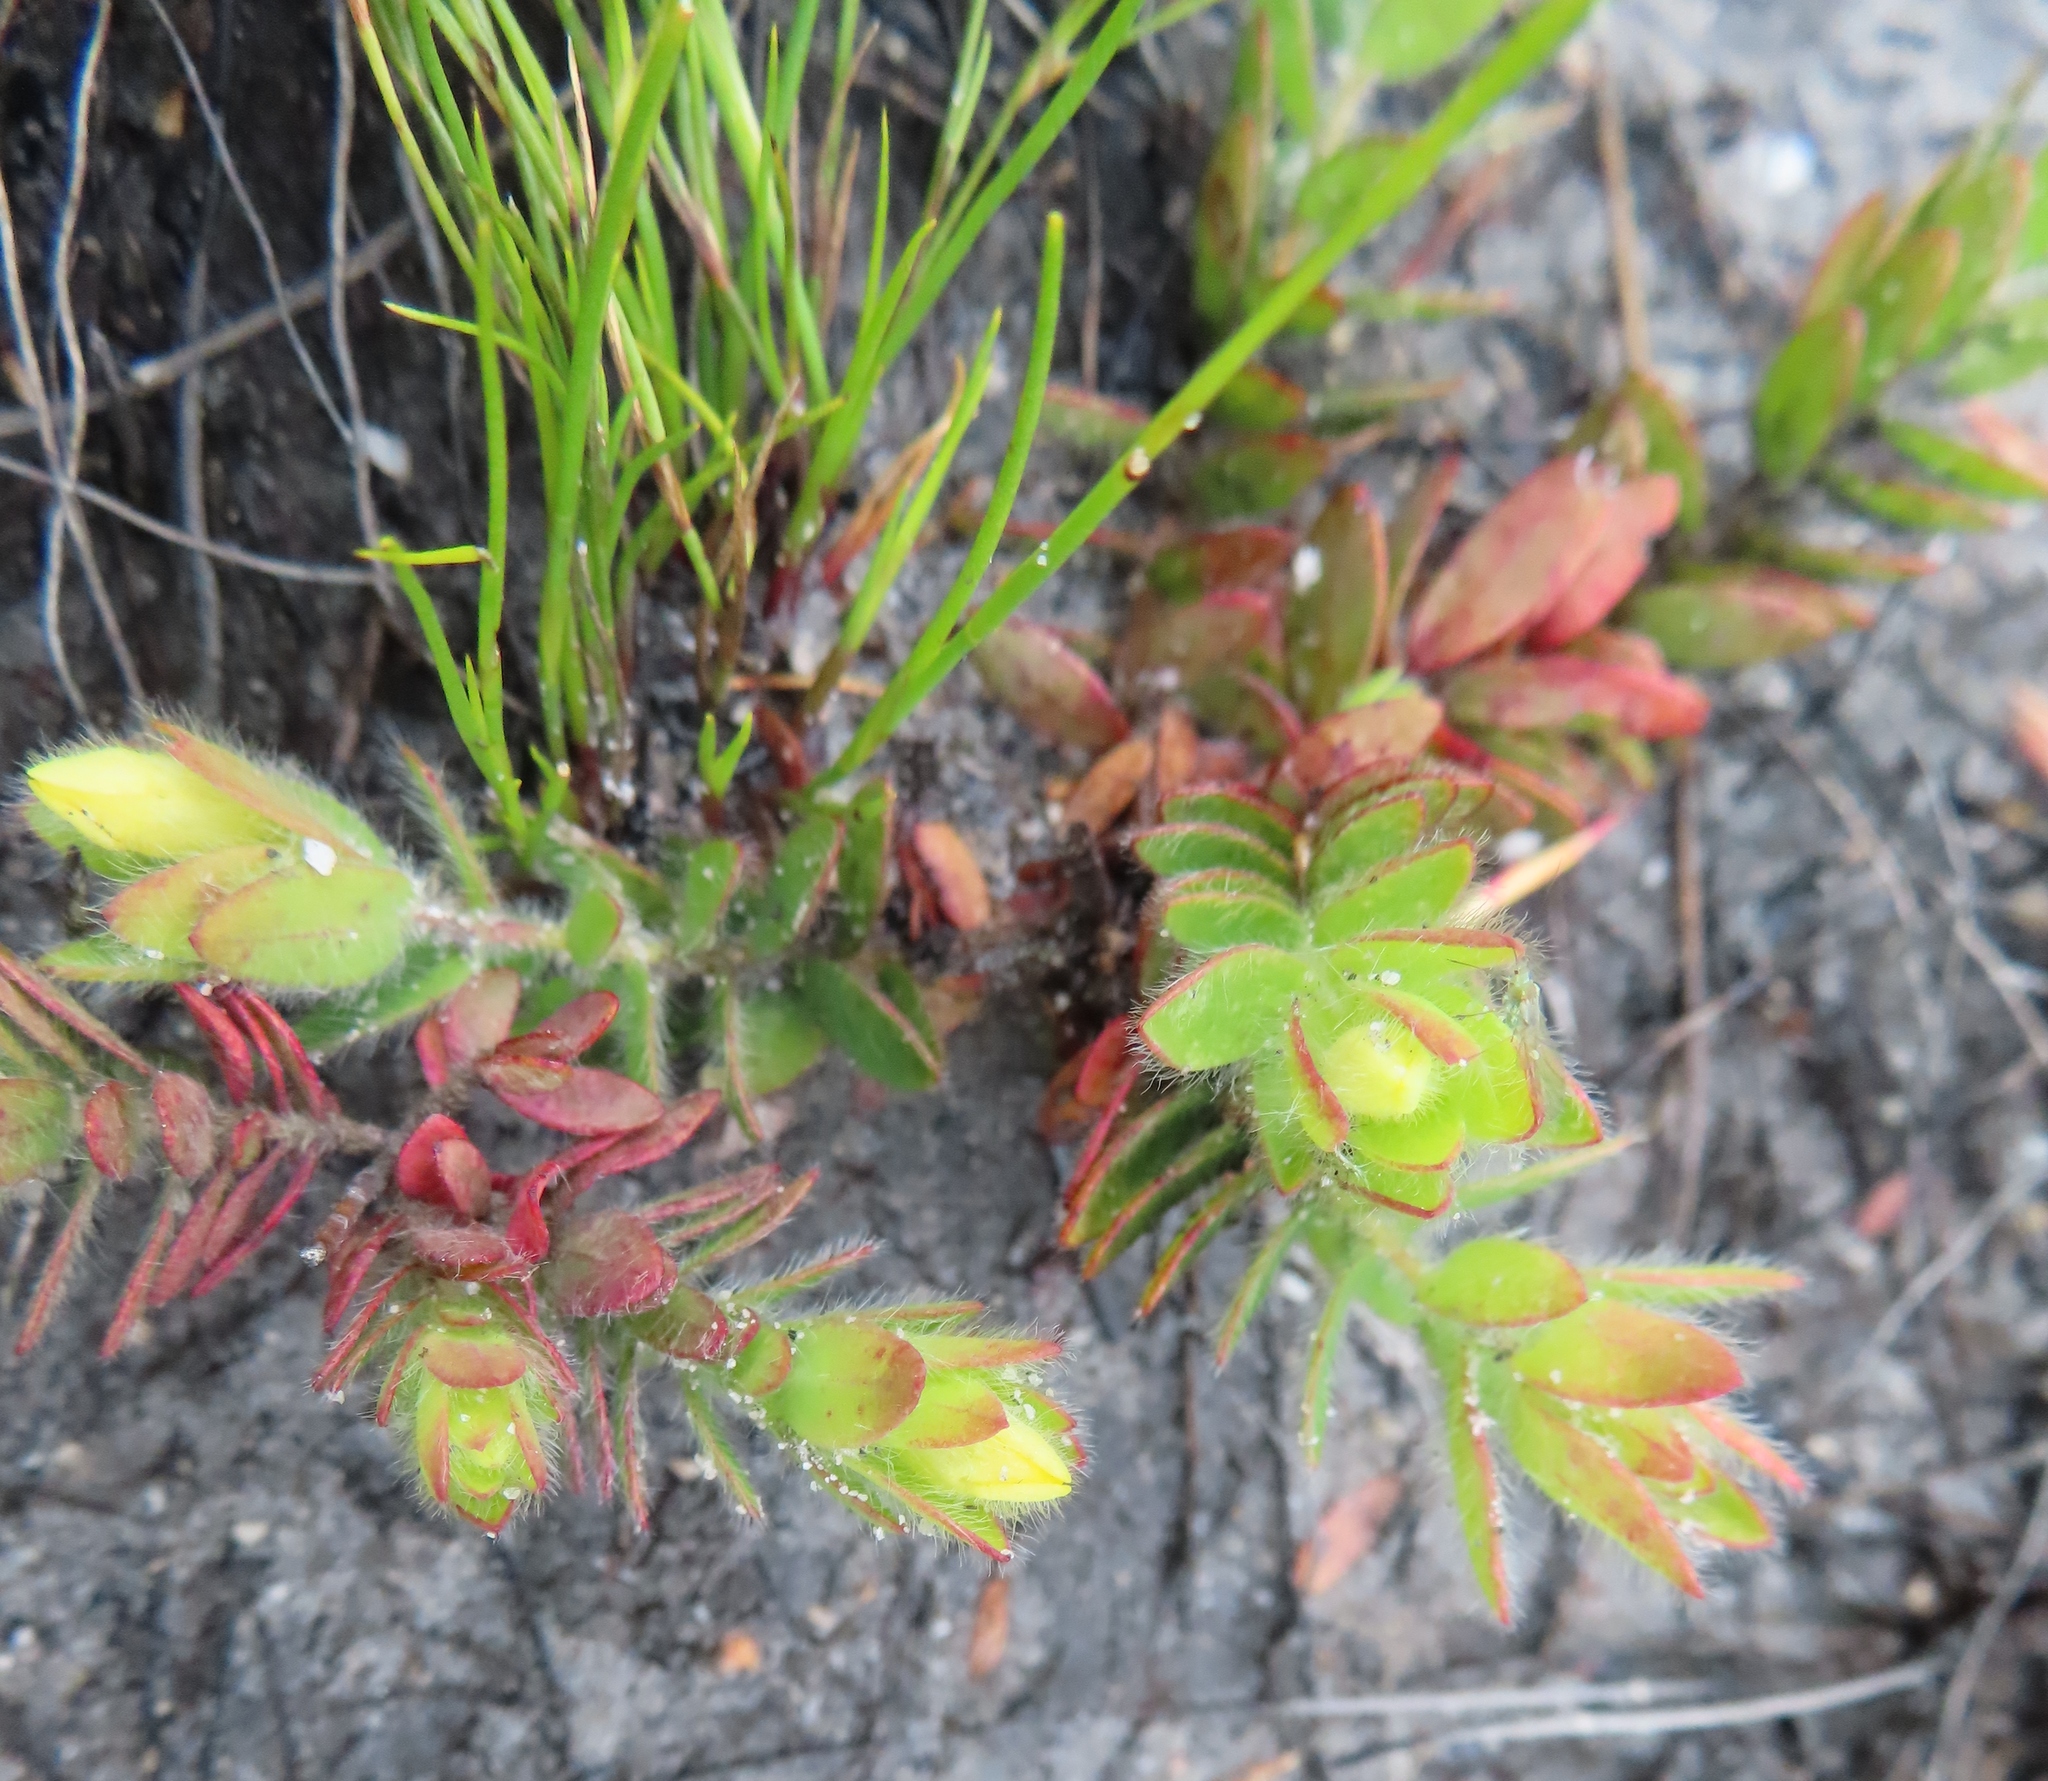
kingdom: Plantae
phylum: Tracheophyta
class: Magnoliopsida
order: Malvales
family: Thymelaeaceae
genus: Gnidia
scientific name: Gnidia humilis
